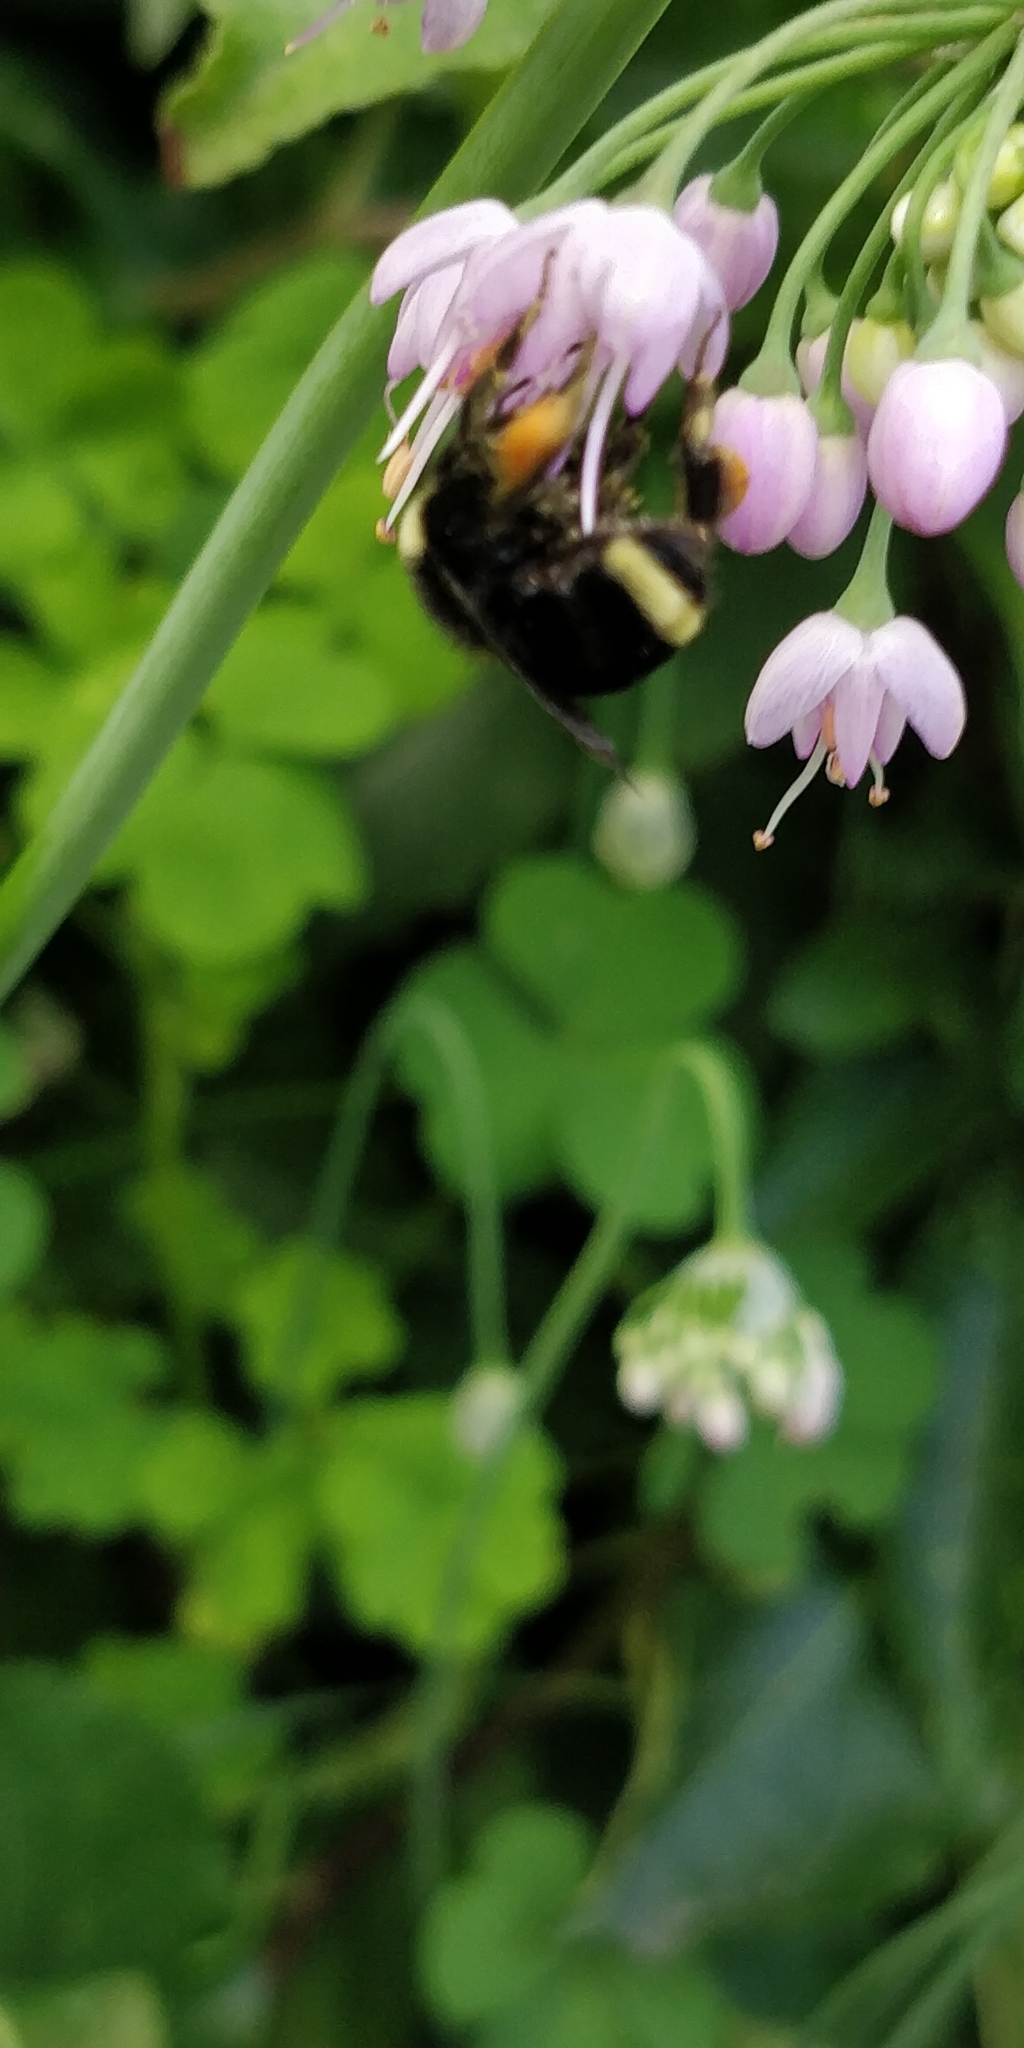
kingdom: Animalia
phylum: Arthropoda
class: Insecta
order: Hymenoptera
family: Apidae
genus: Bombus
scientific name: Bombus vosnesenskii
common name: Vosnesensky bumble bee
